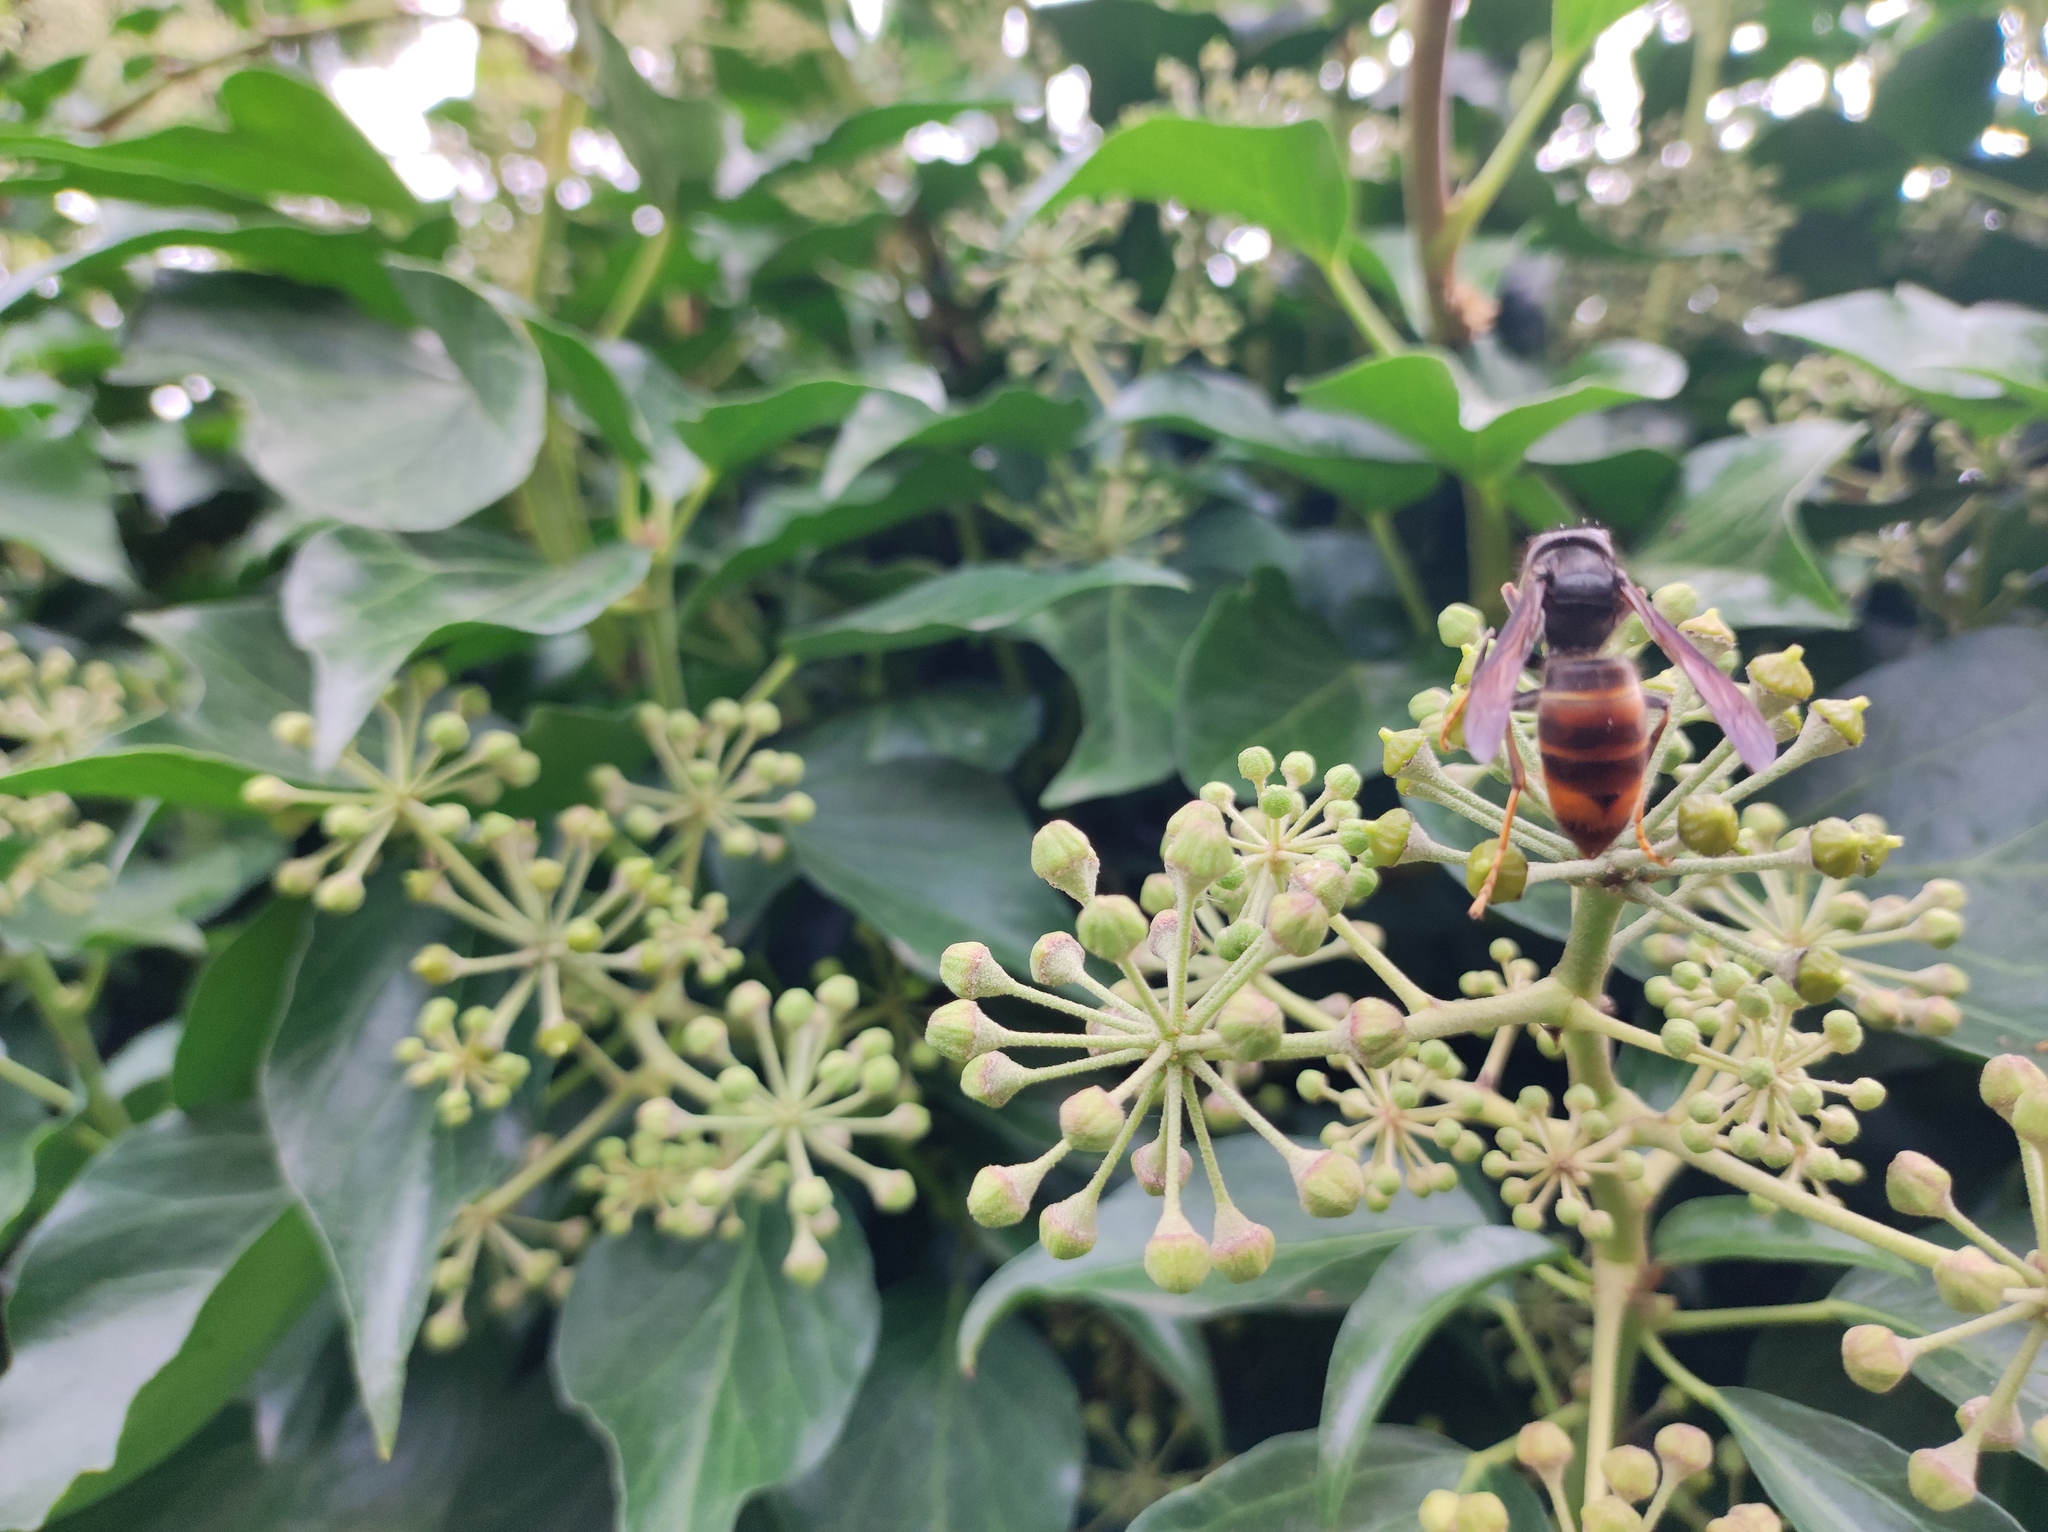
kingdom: Animalia
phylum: Arthropoda
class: Insecta
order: Hymenoptera
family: Vespidae
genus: Vespa
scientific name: Vespa velutina
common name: Asian hornet
